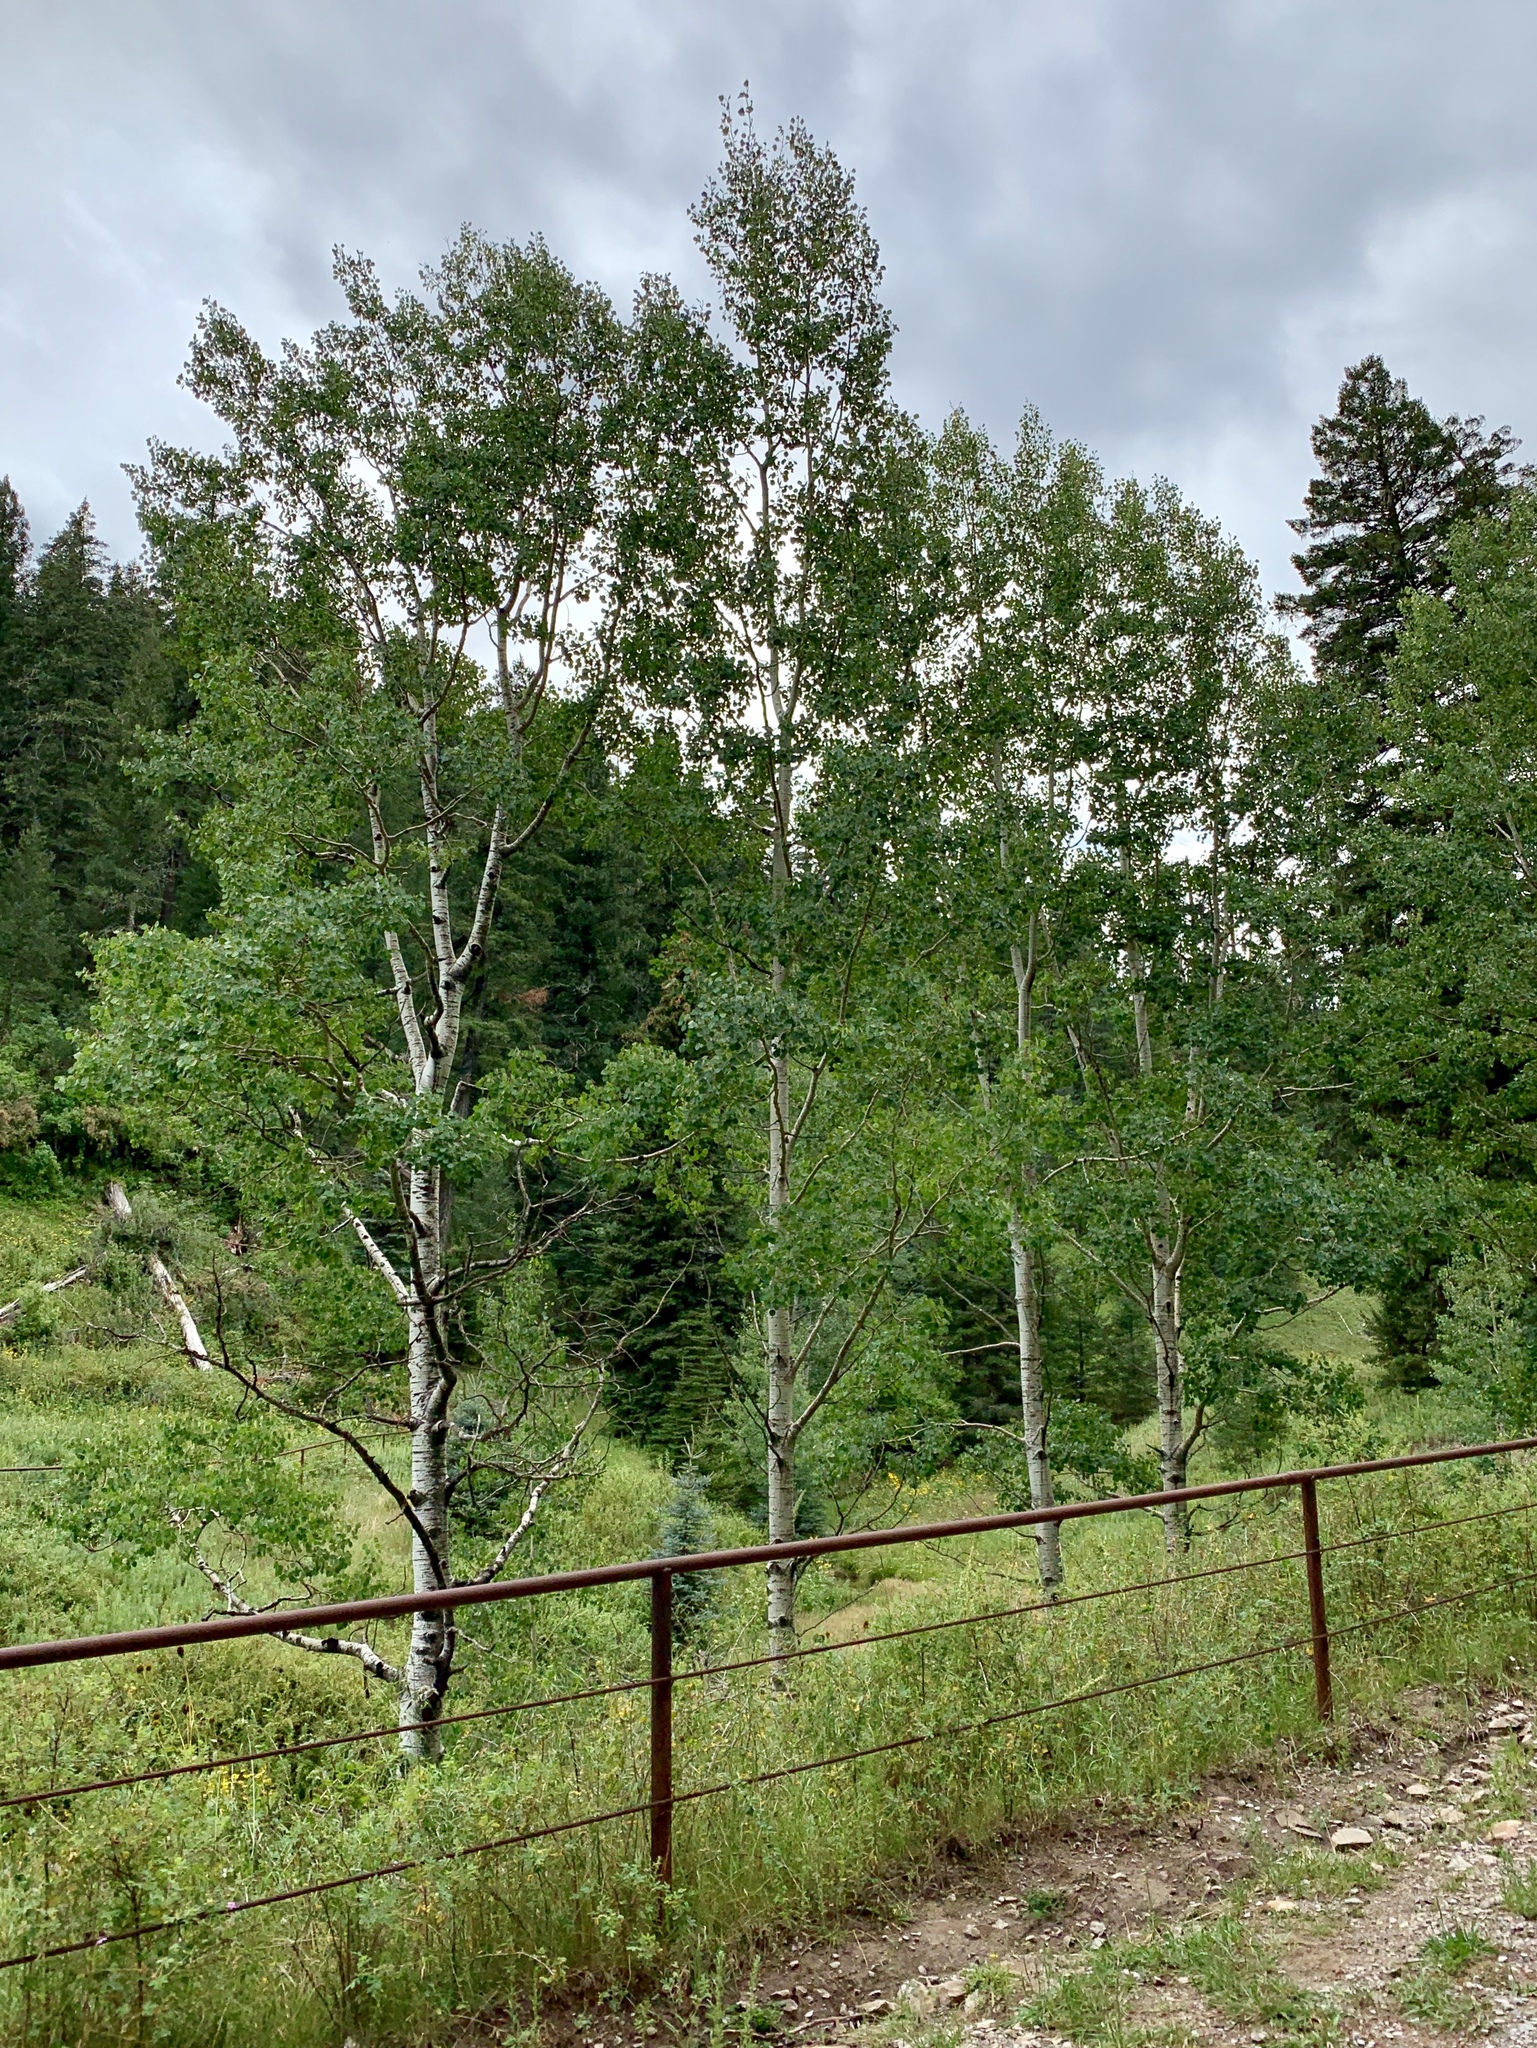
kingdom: Plantae
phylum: Tracheophyta
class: Magnoliopsida
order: Malpighiales
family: Salicaceae
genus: Populus
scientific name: Populus tremuloides
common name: Quaking aspen
